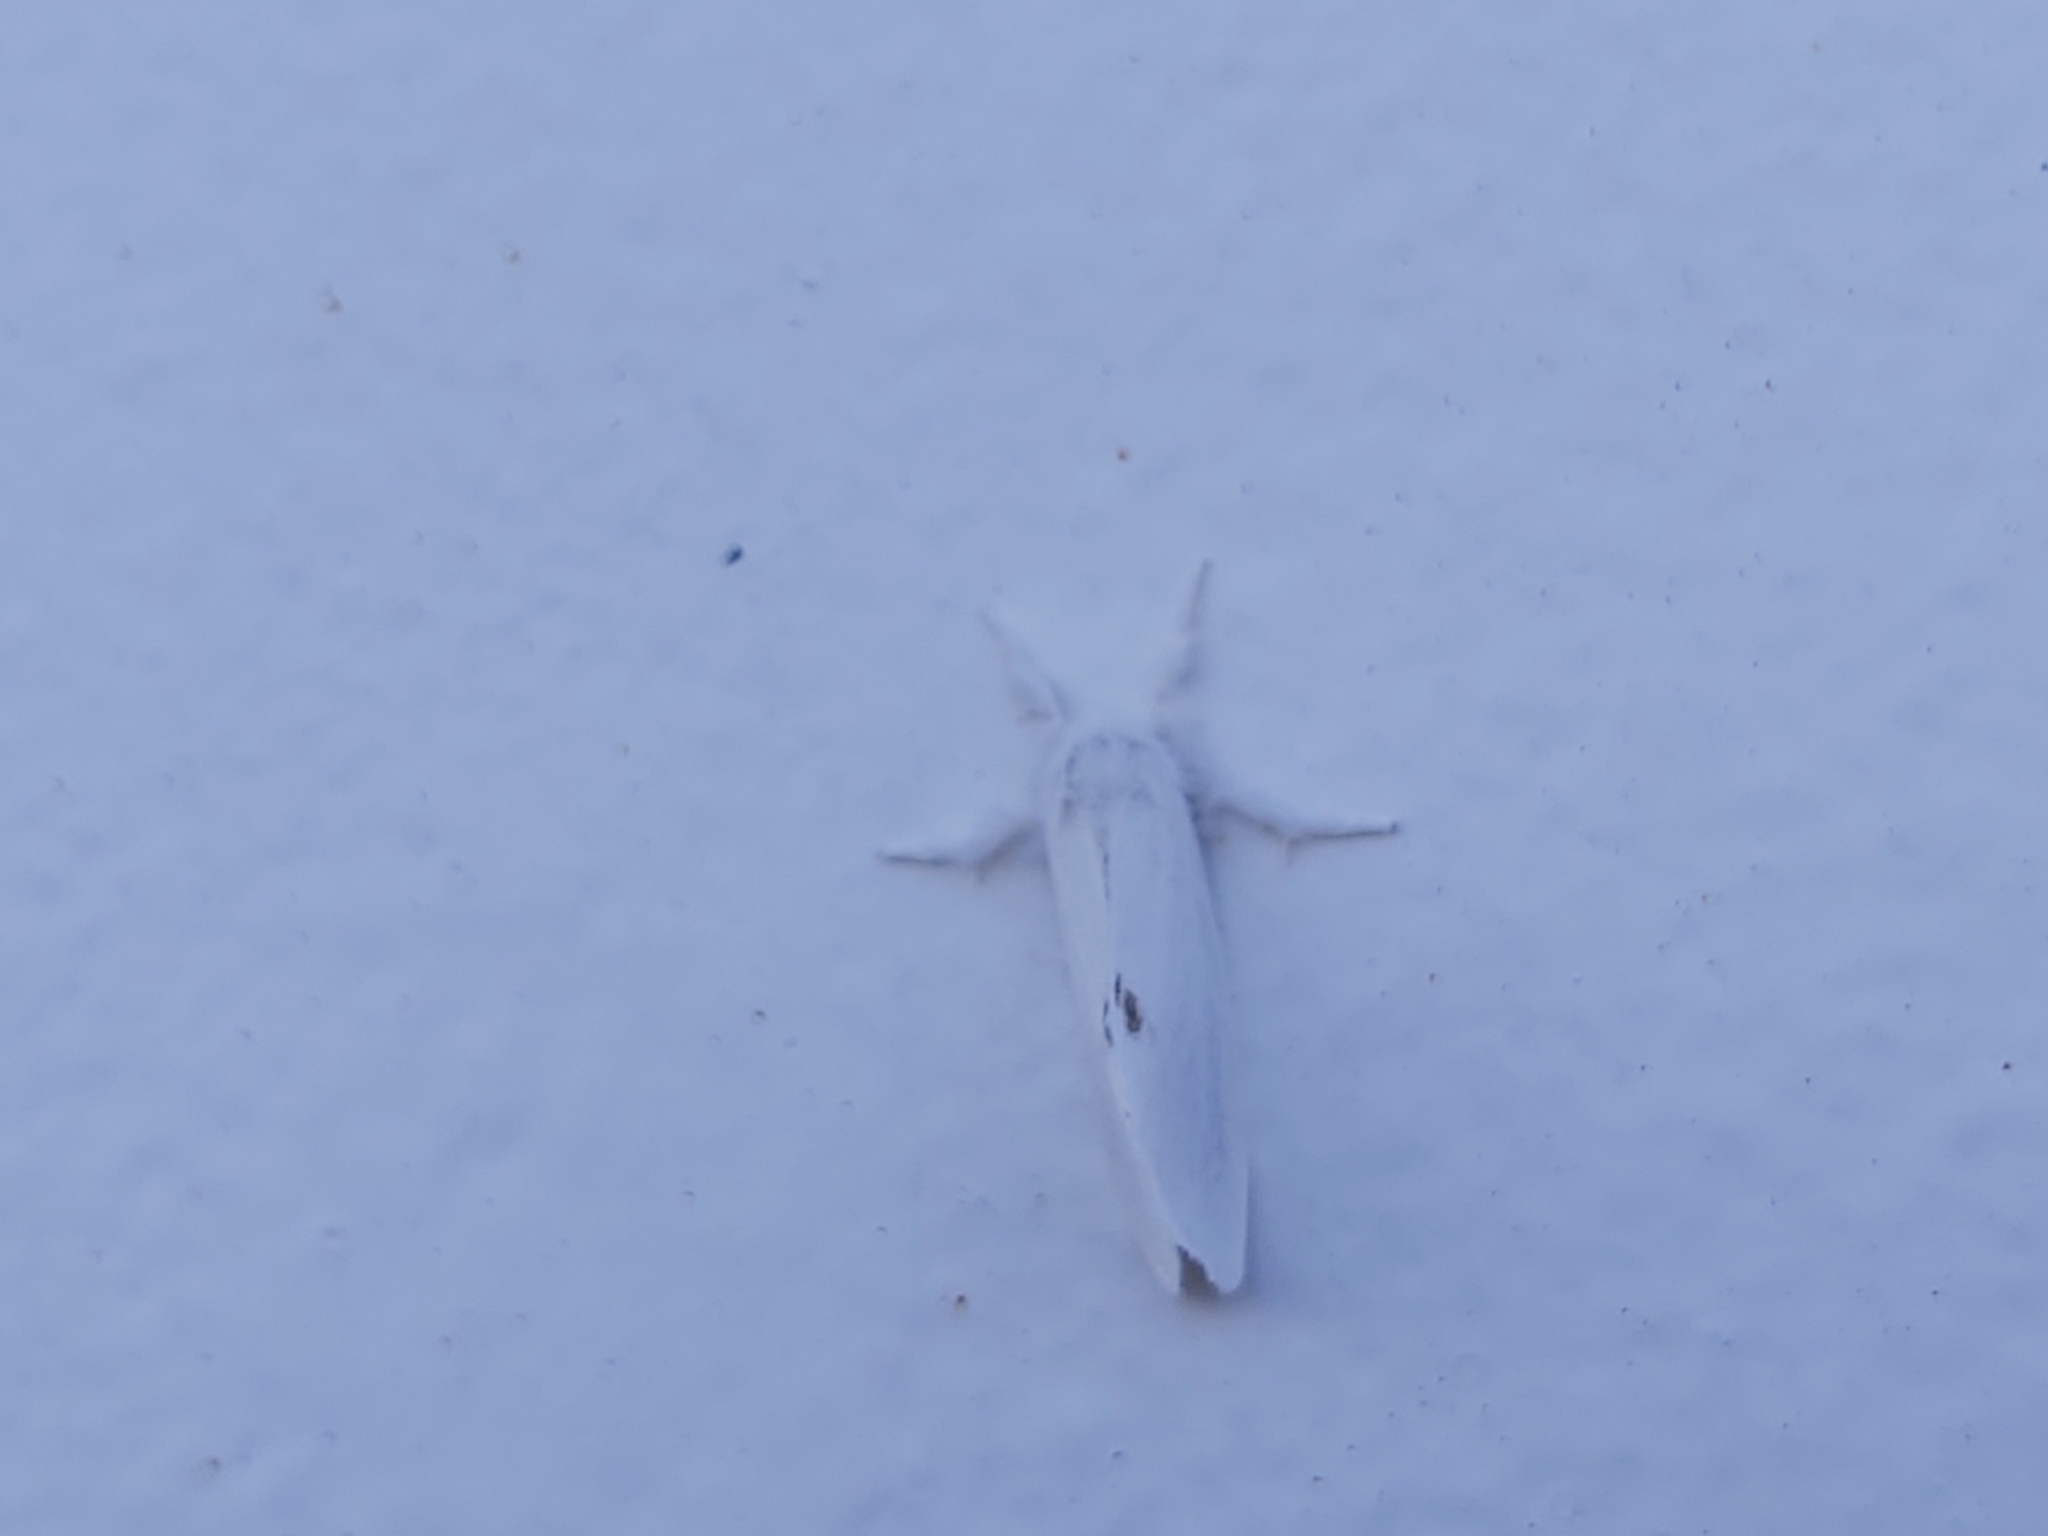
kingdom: Animalia
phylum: Arthropoda
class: Insecta
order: Lepidoptera
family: Erebidae
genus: Sphrageidus
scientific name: Sphrageidus similis
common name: Yellow-tail
